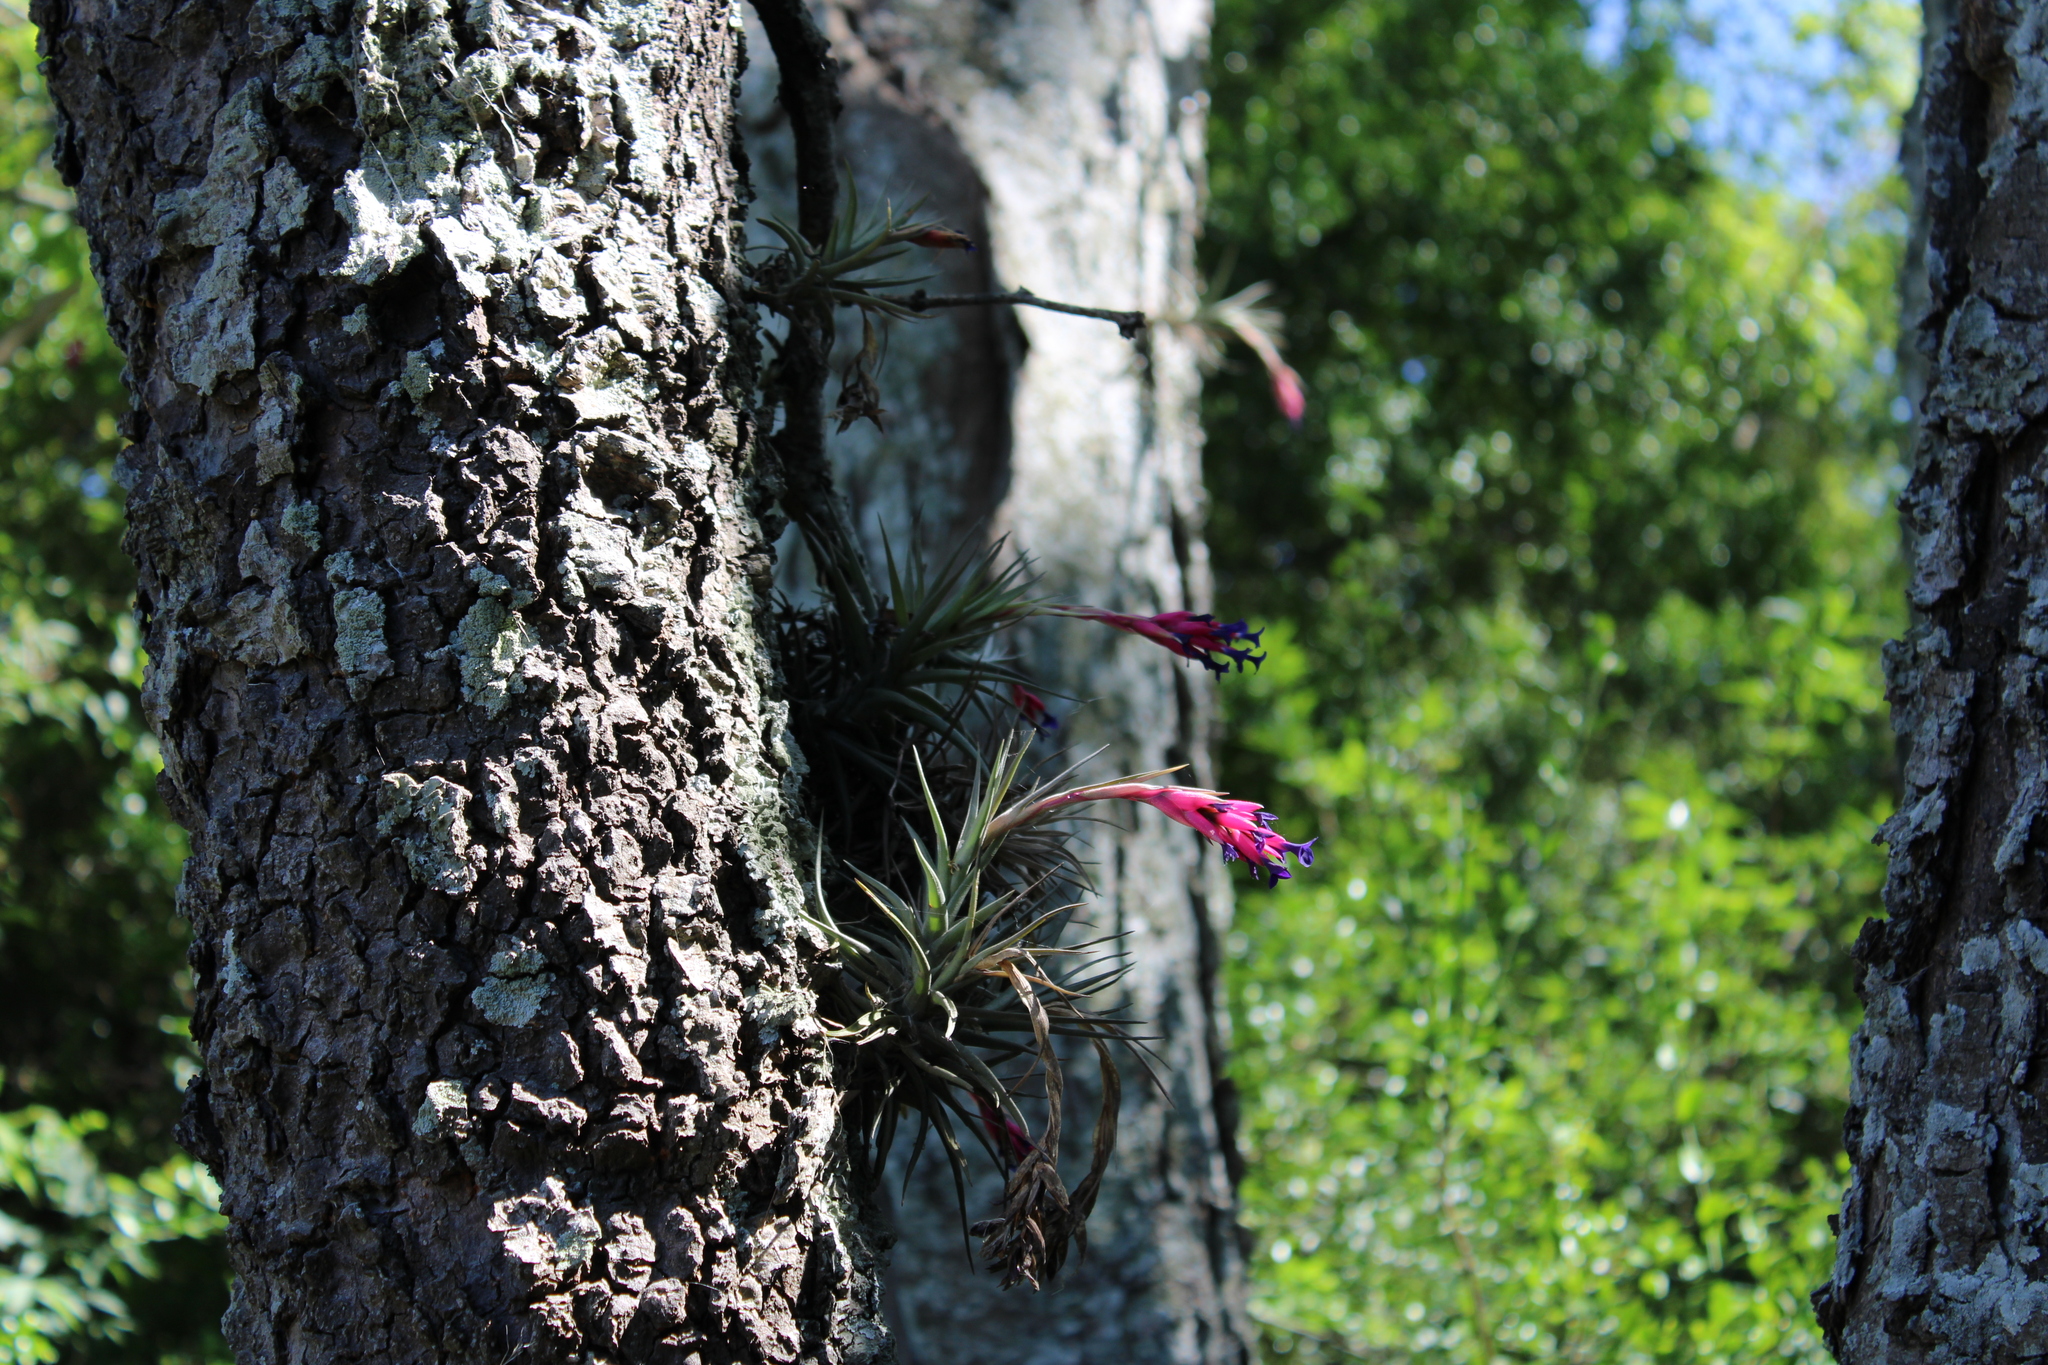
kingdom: Plantae
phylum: Tracheophyta
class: Liliopsida
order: Poales
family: Bromeliaceae
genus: Tillandsia
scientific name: Tillandsia aeranthos
